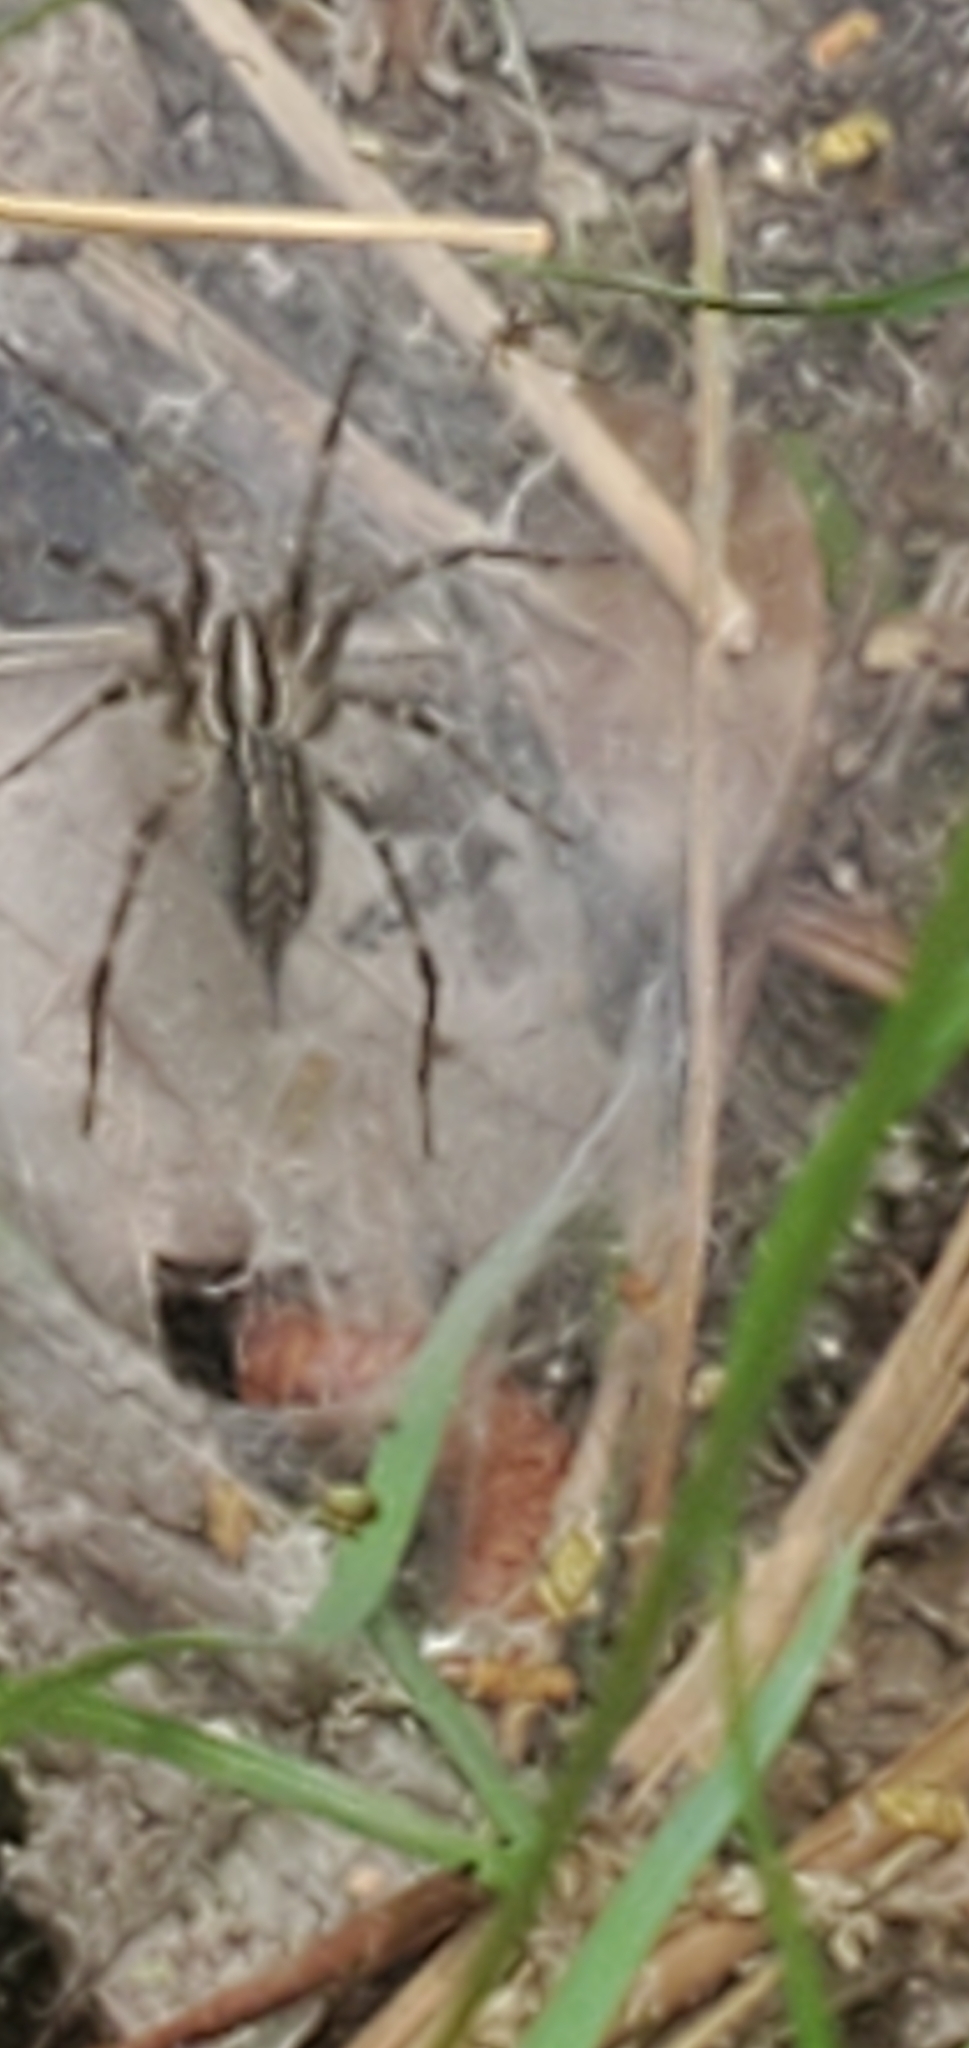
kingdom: Animalia
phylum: Arthropoda
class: Arachnida
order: Araneae
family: Agelenidae
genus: Agelenopsis
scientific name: Agelenopsis
